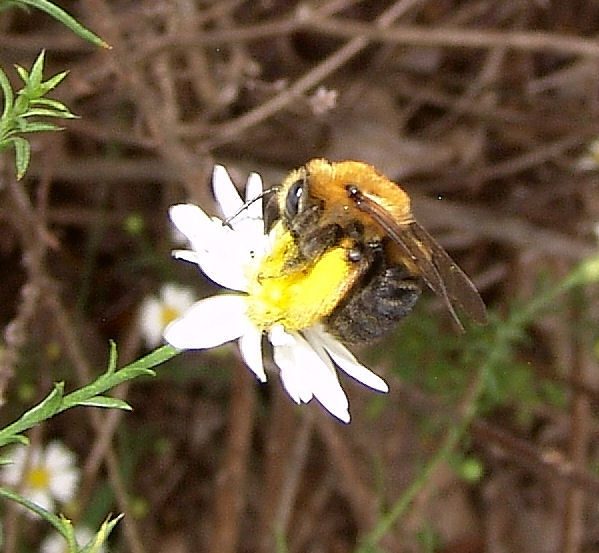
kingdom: Animalia
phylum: Arthropoda
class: Insecta
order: Hymenoptera
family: Apidae
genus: Melissodes
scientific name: Melissodes dentiventris
